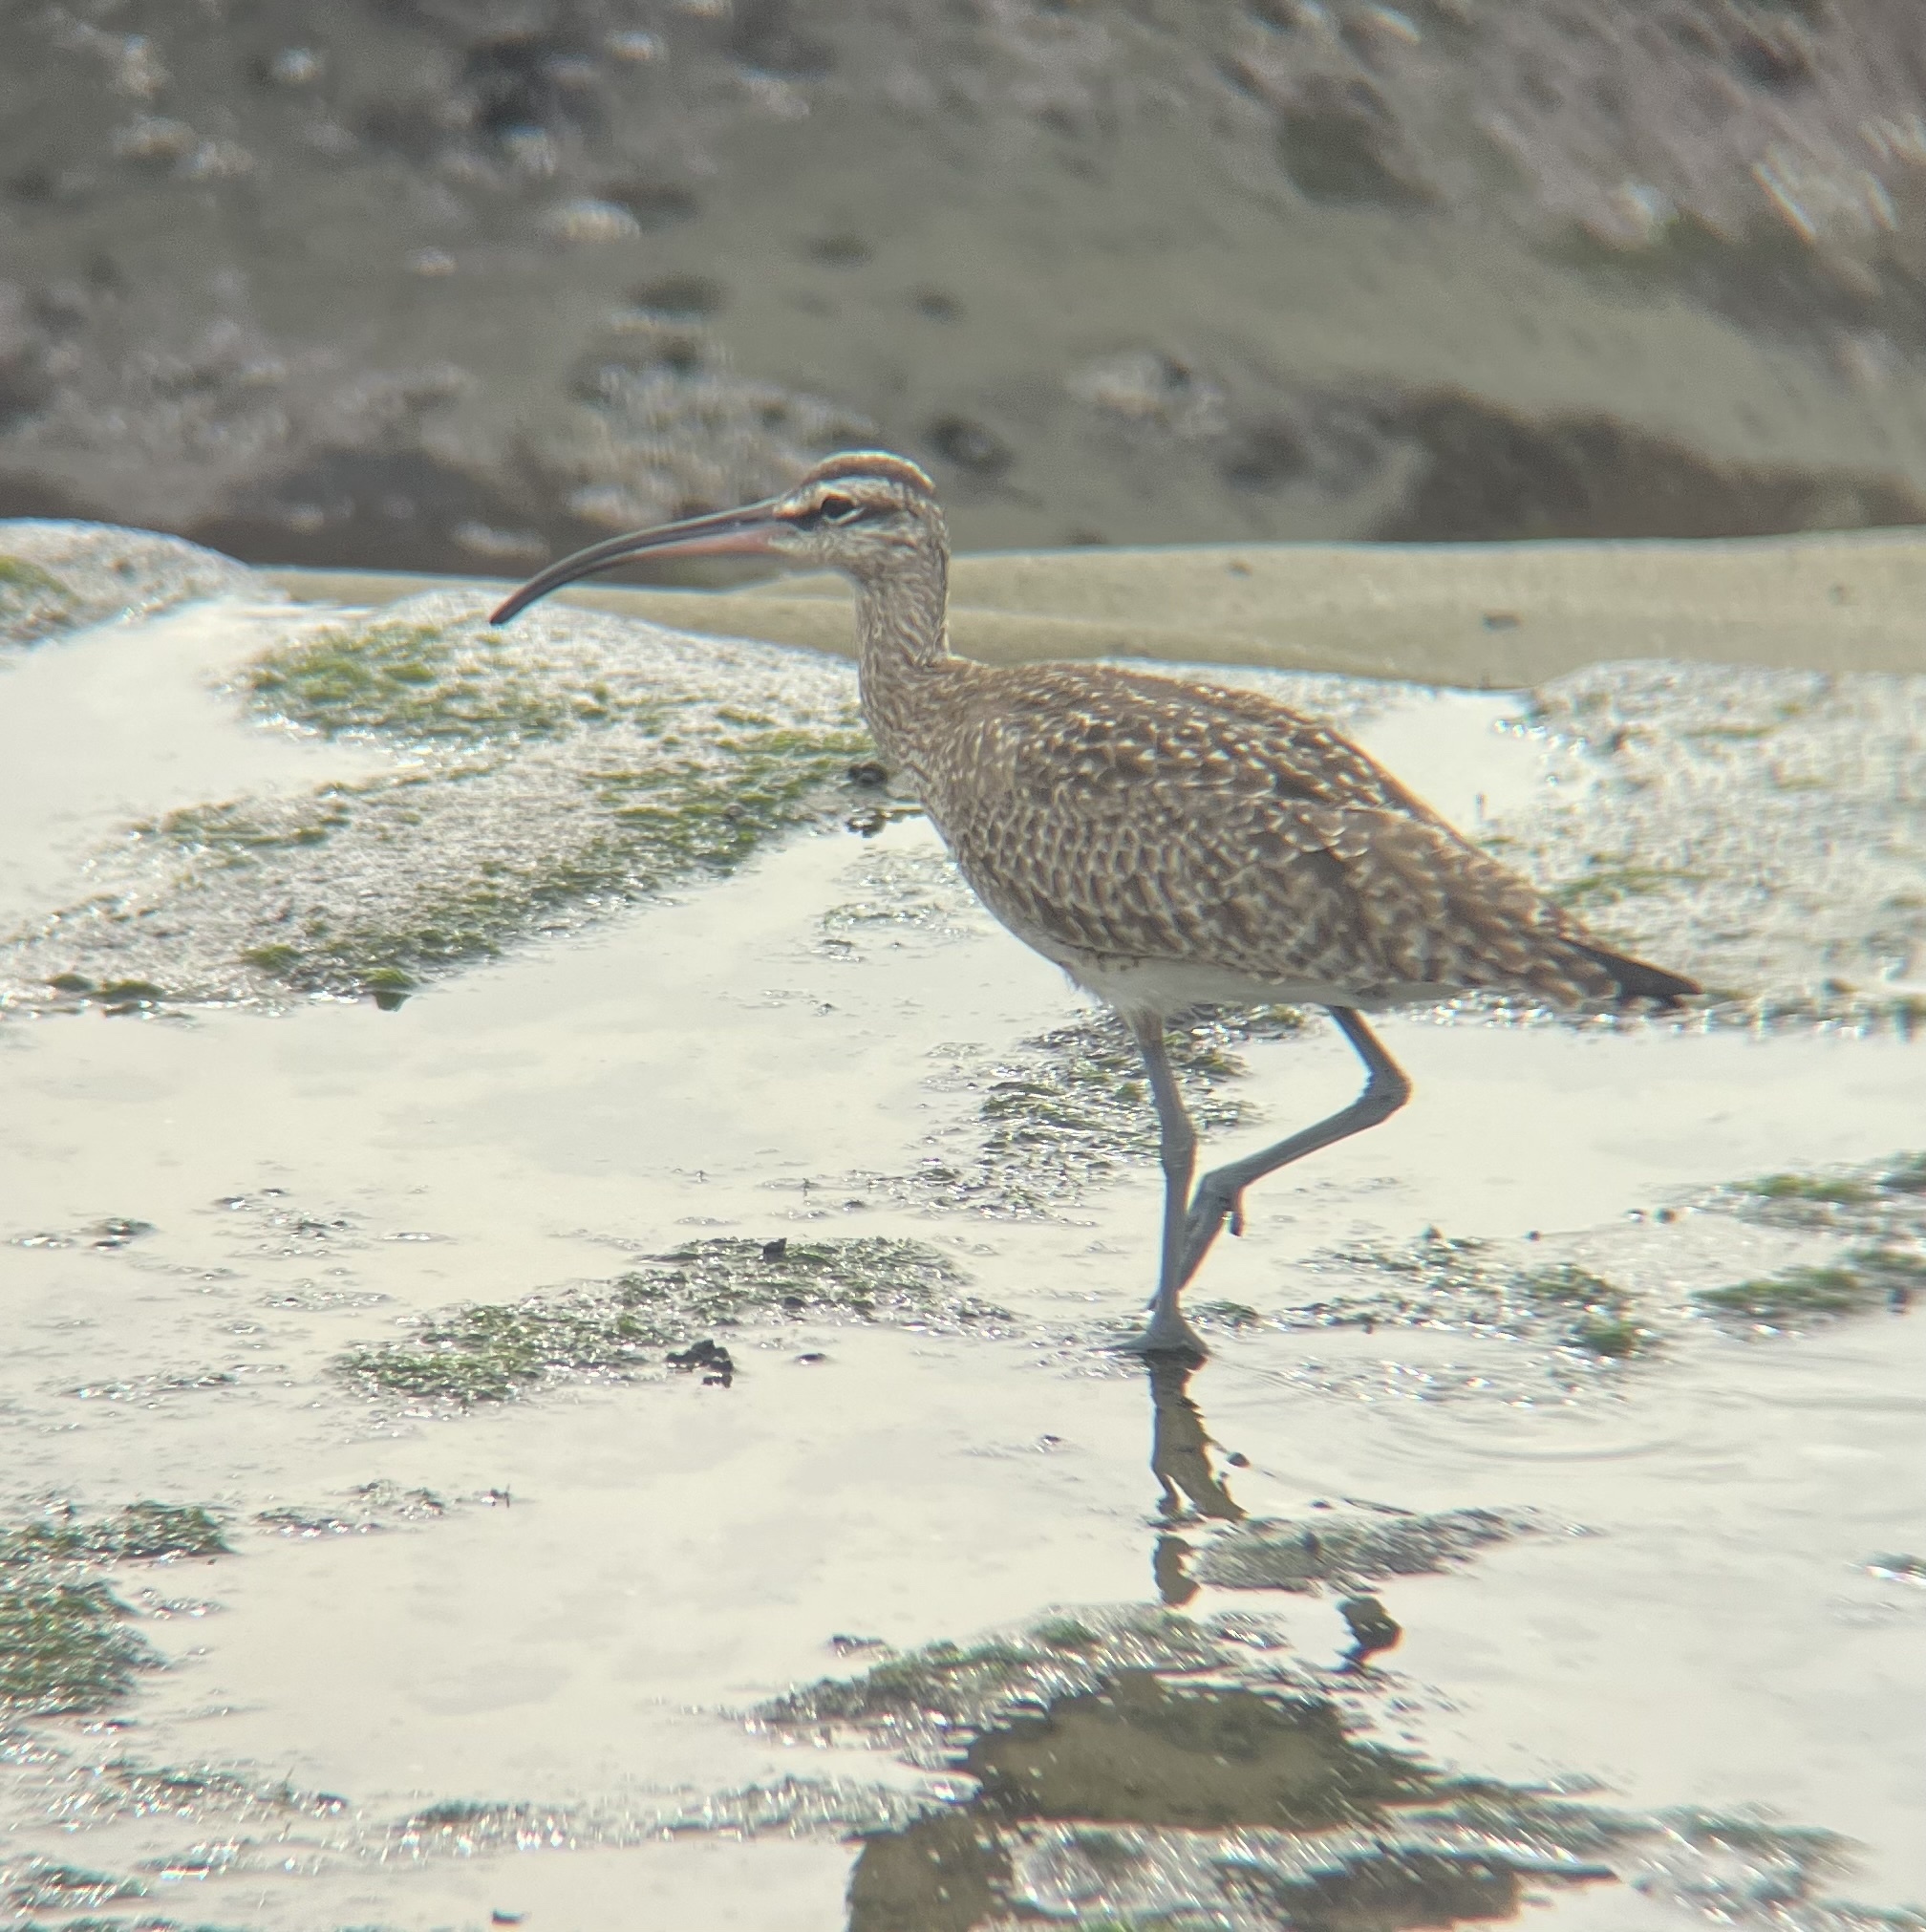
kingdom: Animalia
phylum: Chordata
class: Aves
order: Charadriiformes
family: Scolopacidae
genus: Numenius
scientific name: Numenius phaeopus
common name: Whimbrel
